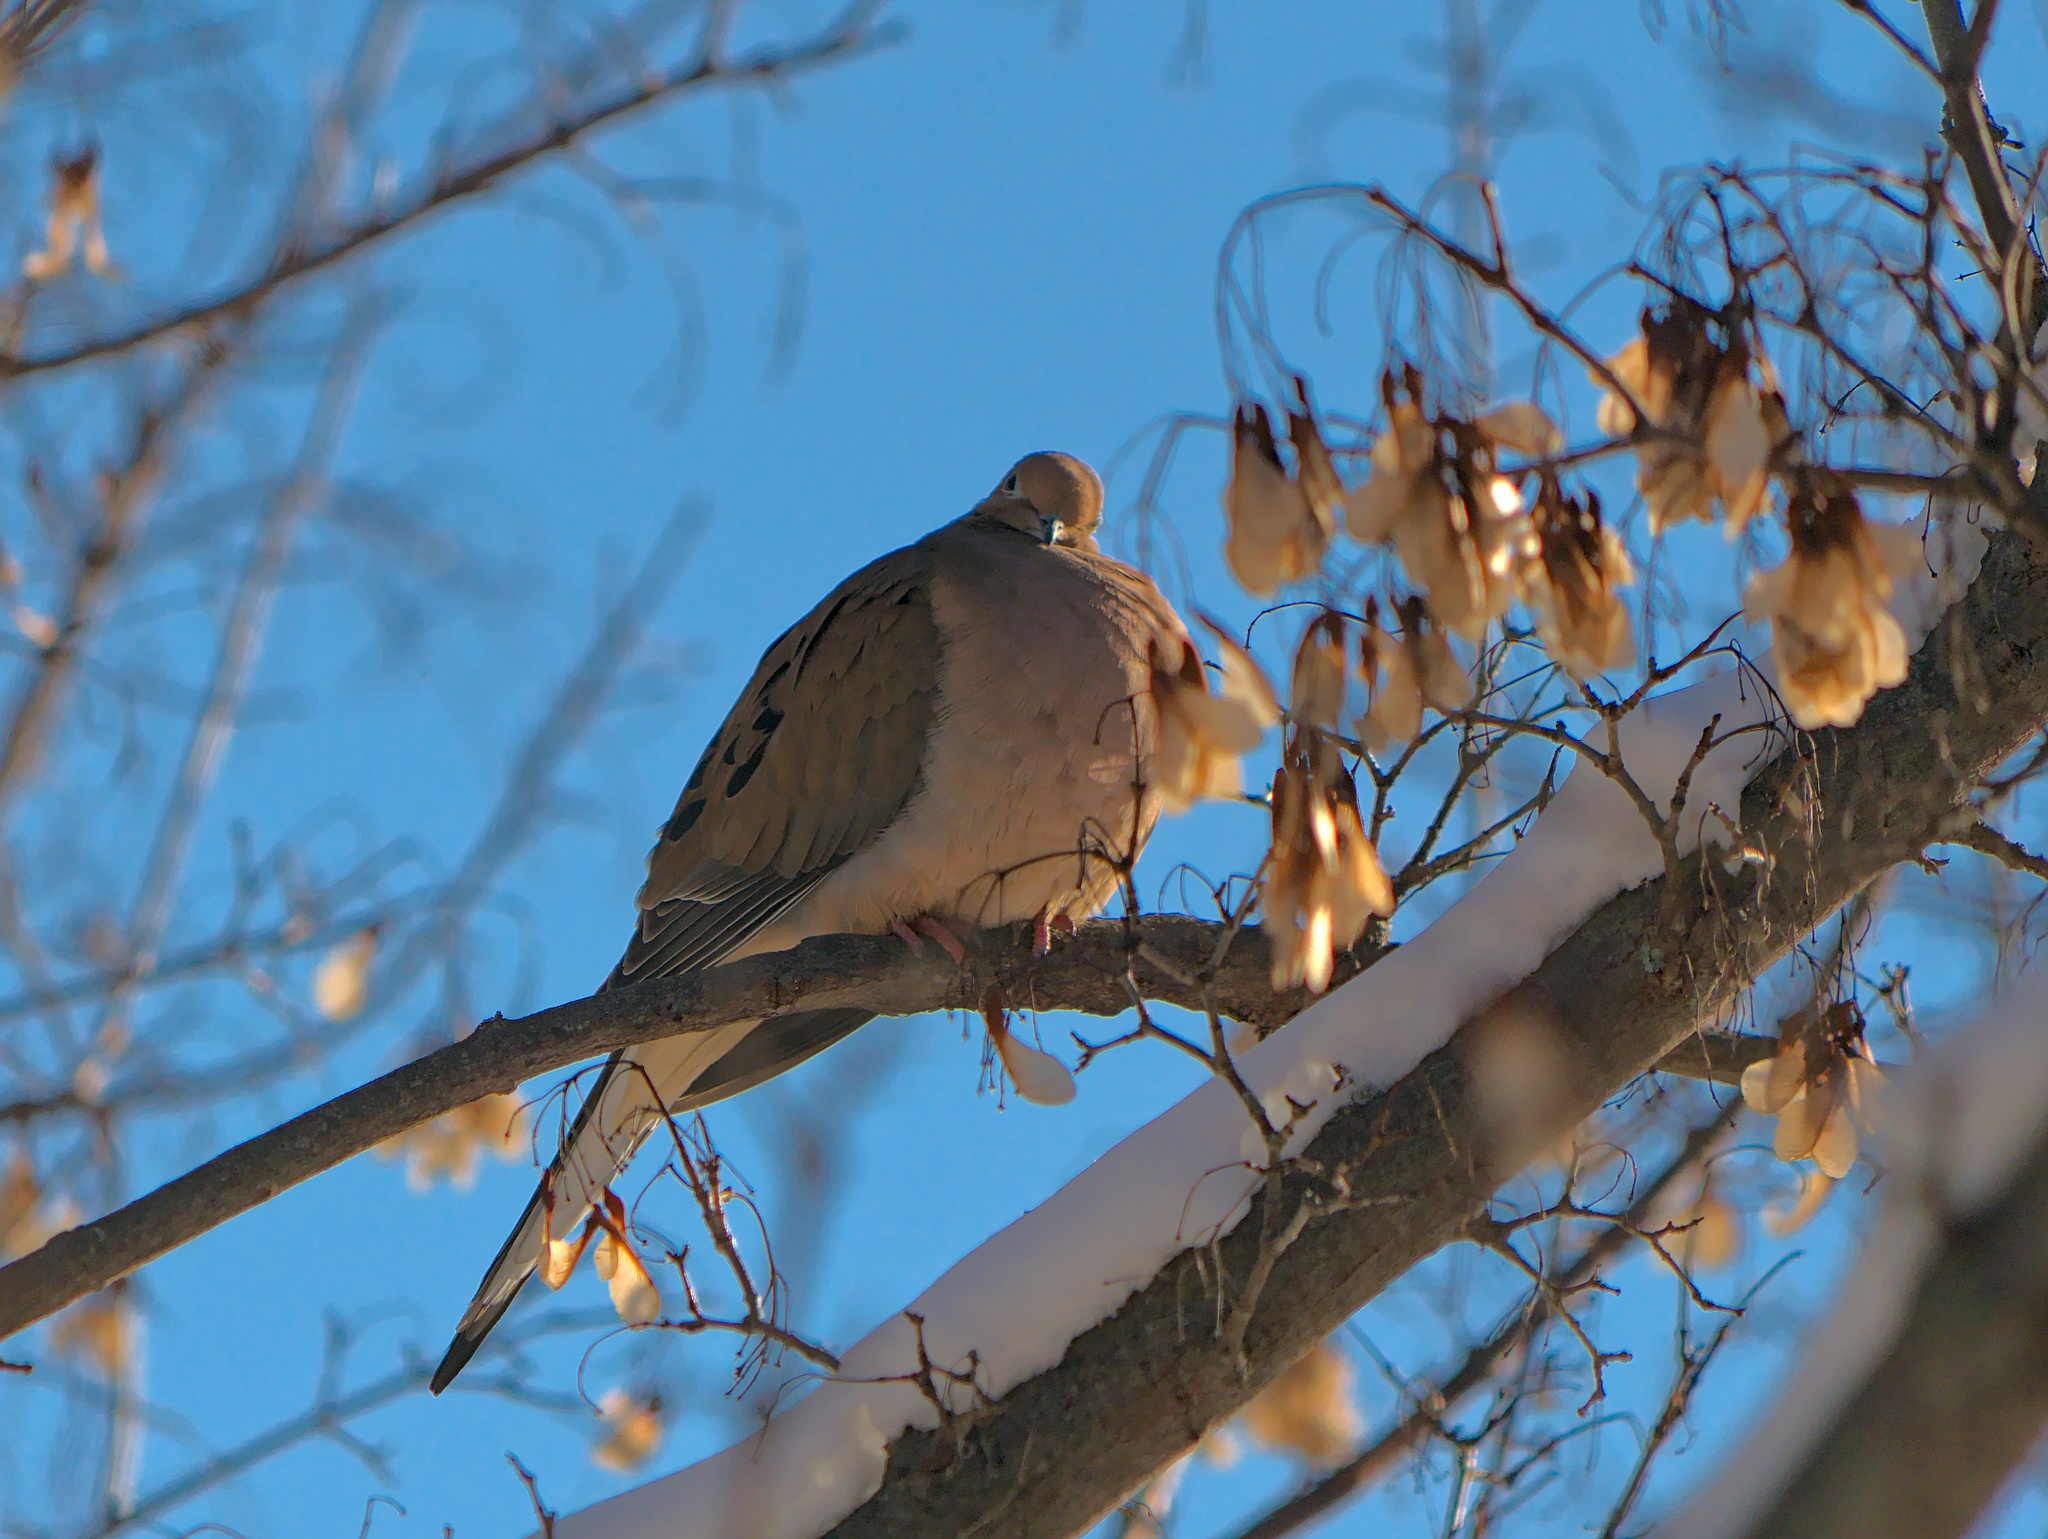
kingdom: Animalia
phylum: Chordata
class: Aves
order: Columbiformes
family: Columbidae
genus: Zenaida
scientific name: Zenaida macroura
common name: Mourning dove
